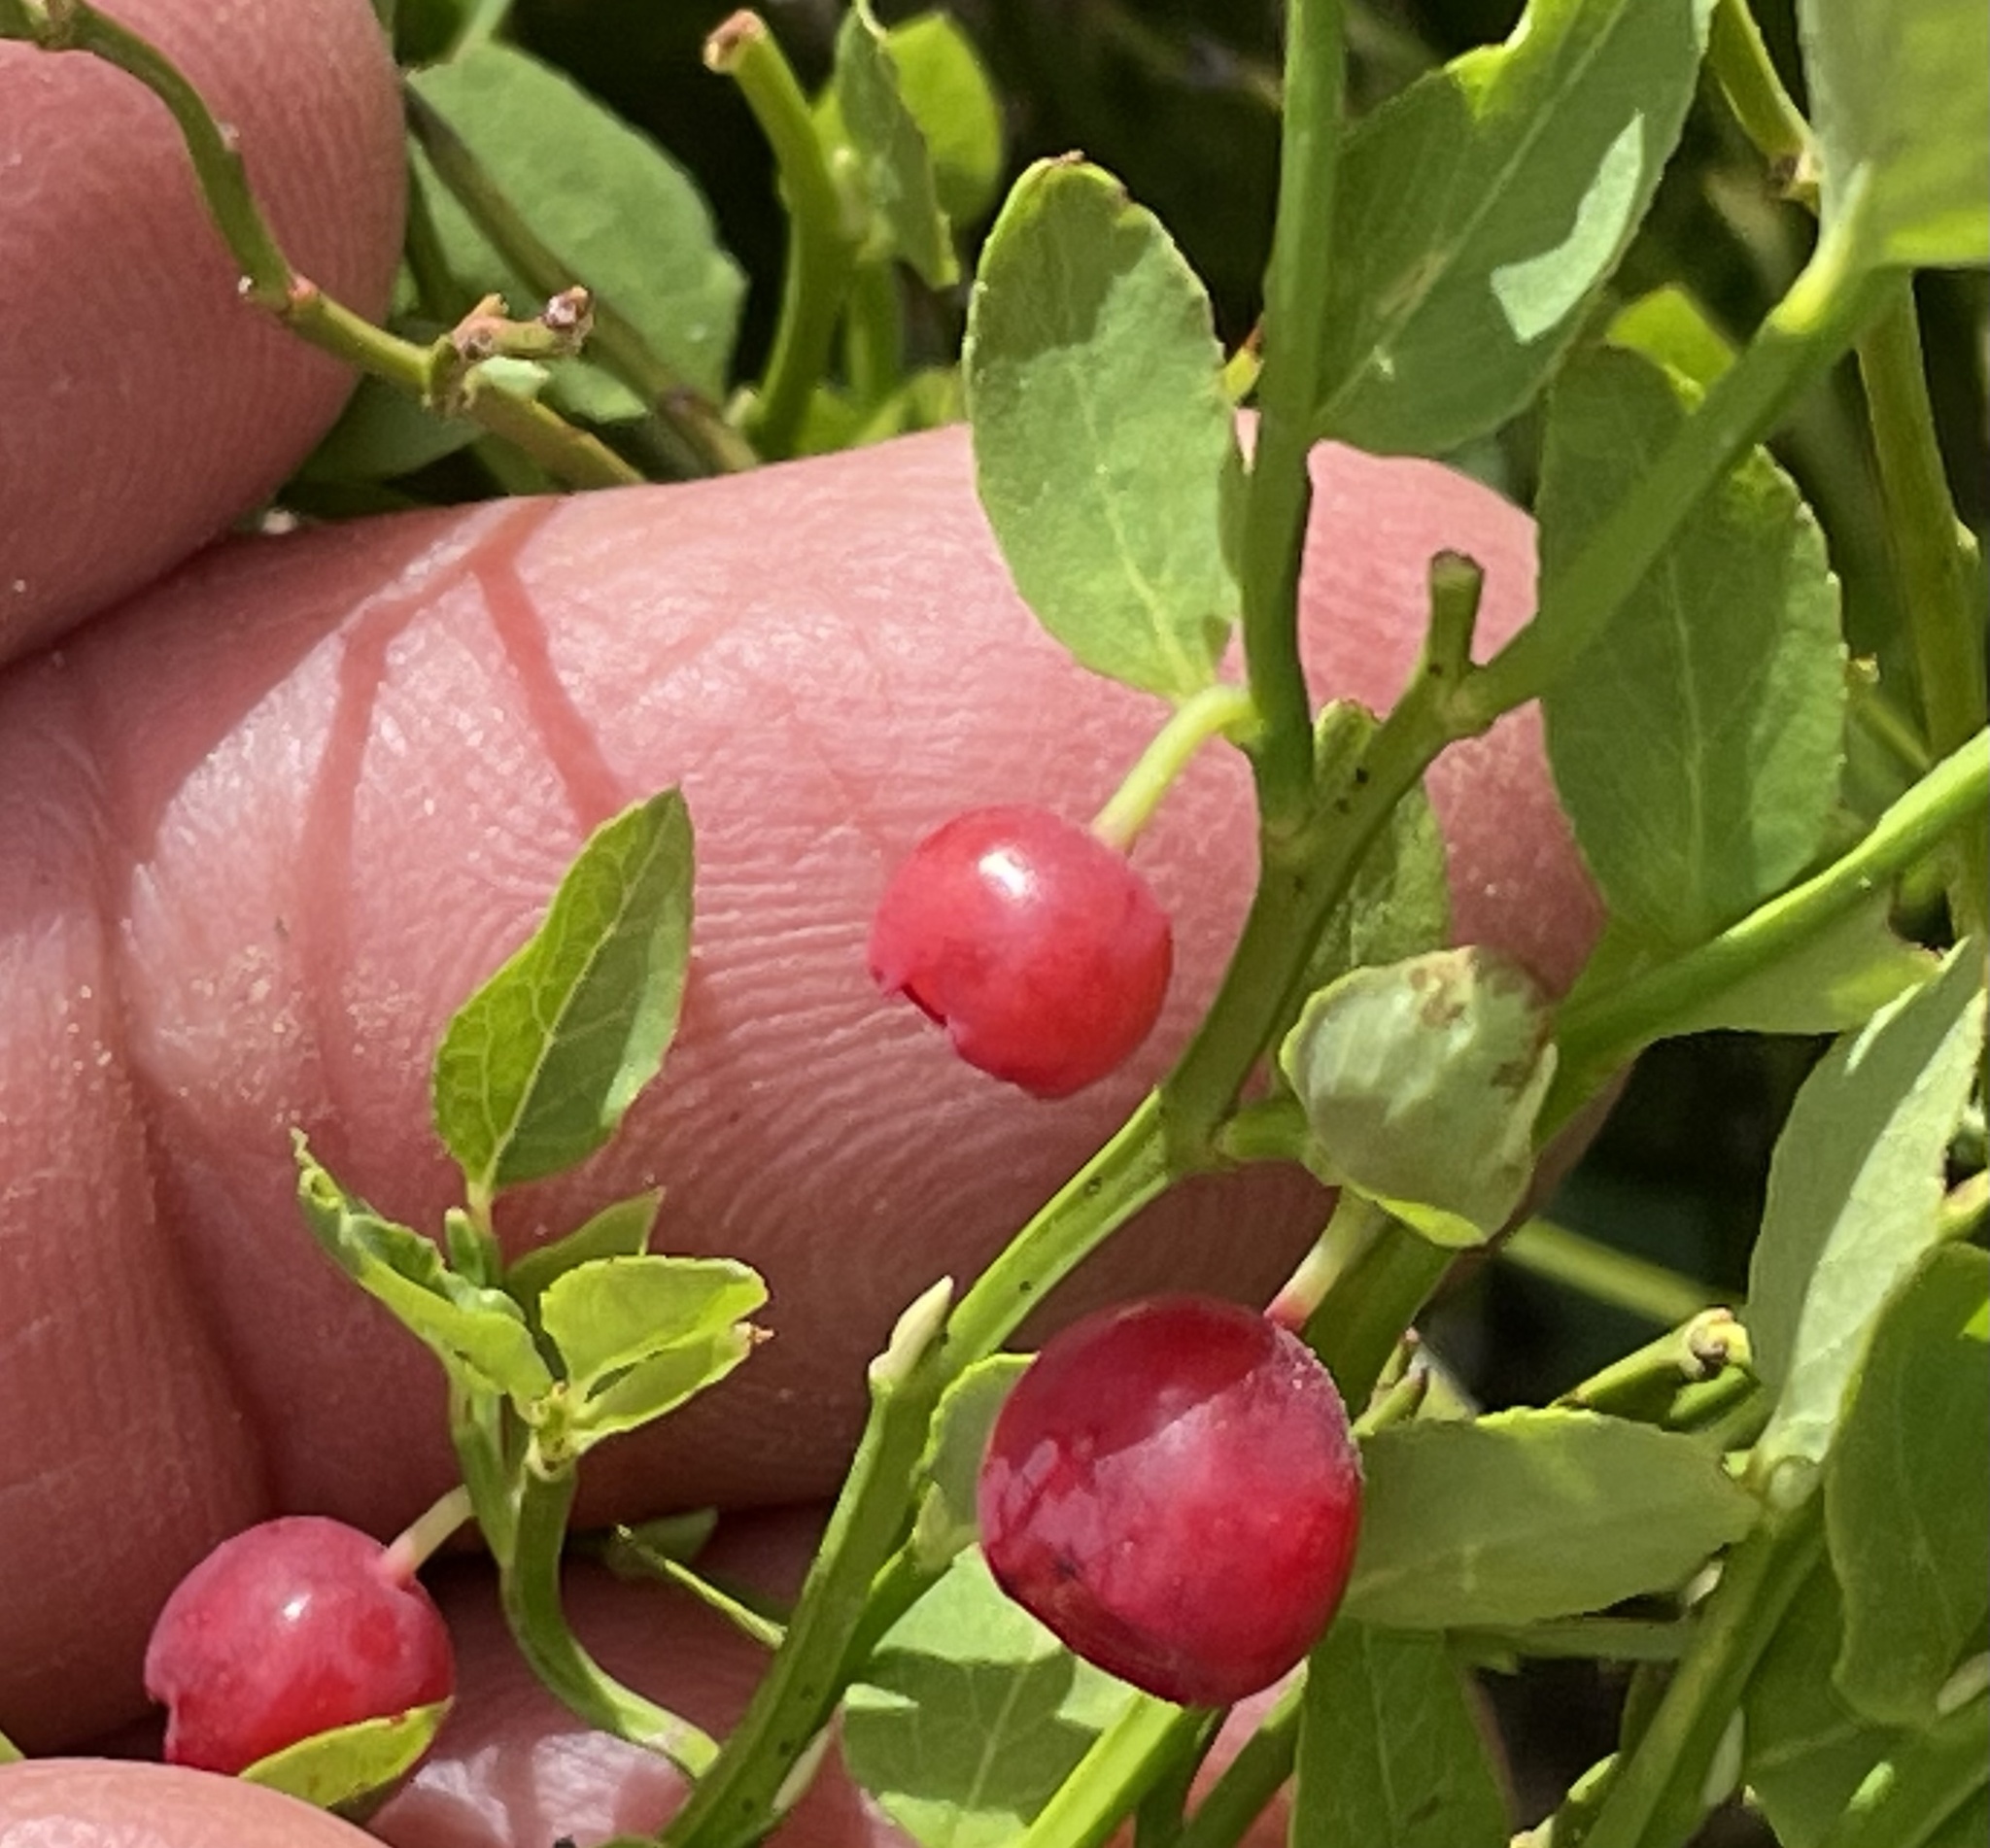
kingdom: Plantae
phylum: Tracheophyta
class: Magnoliopsida
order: Ericales
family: Ericaceae
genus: Vaccinium
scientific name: Vaccinium scoparium
